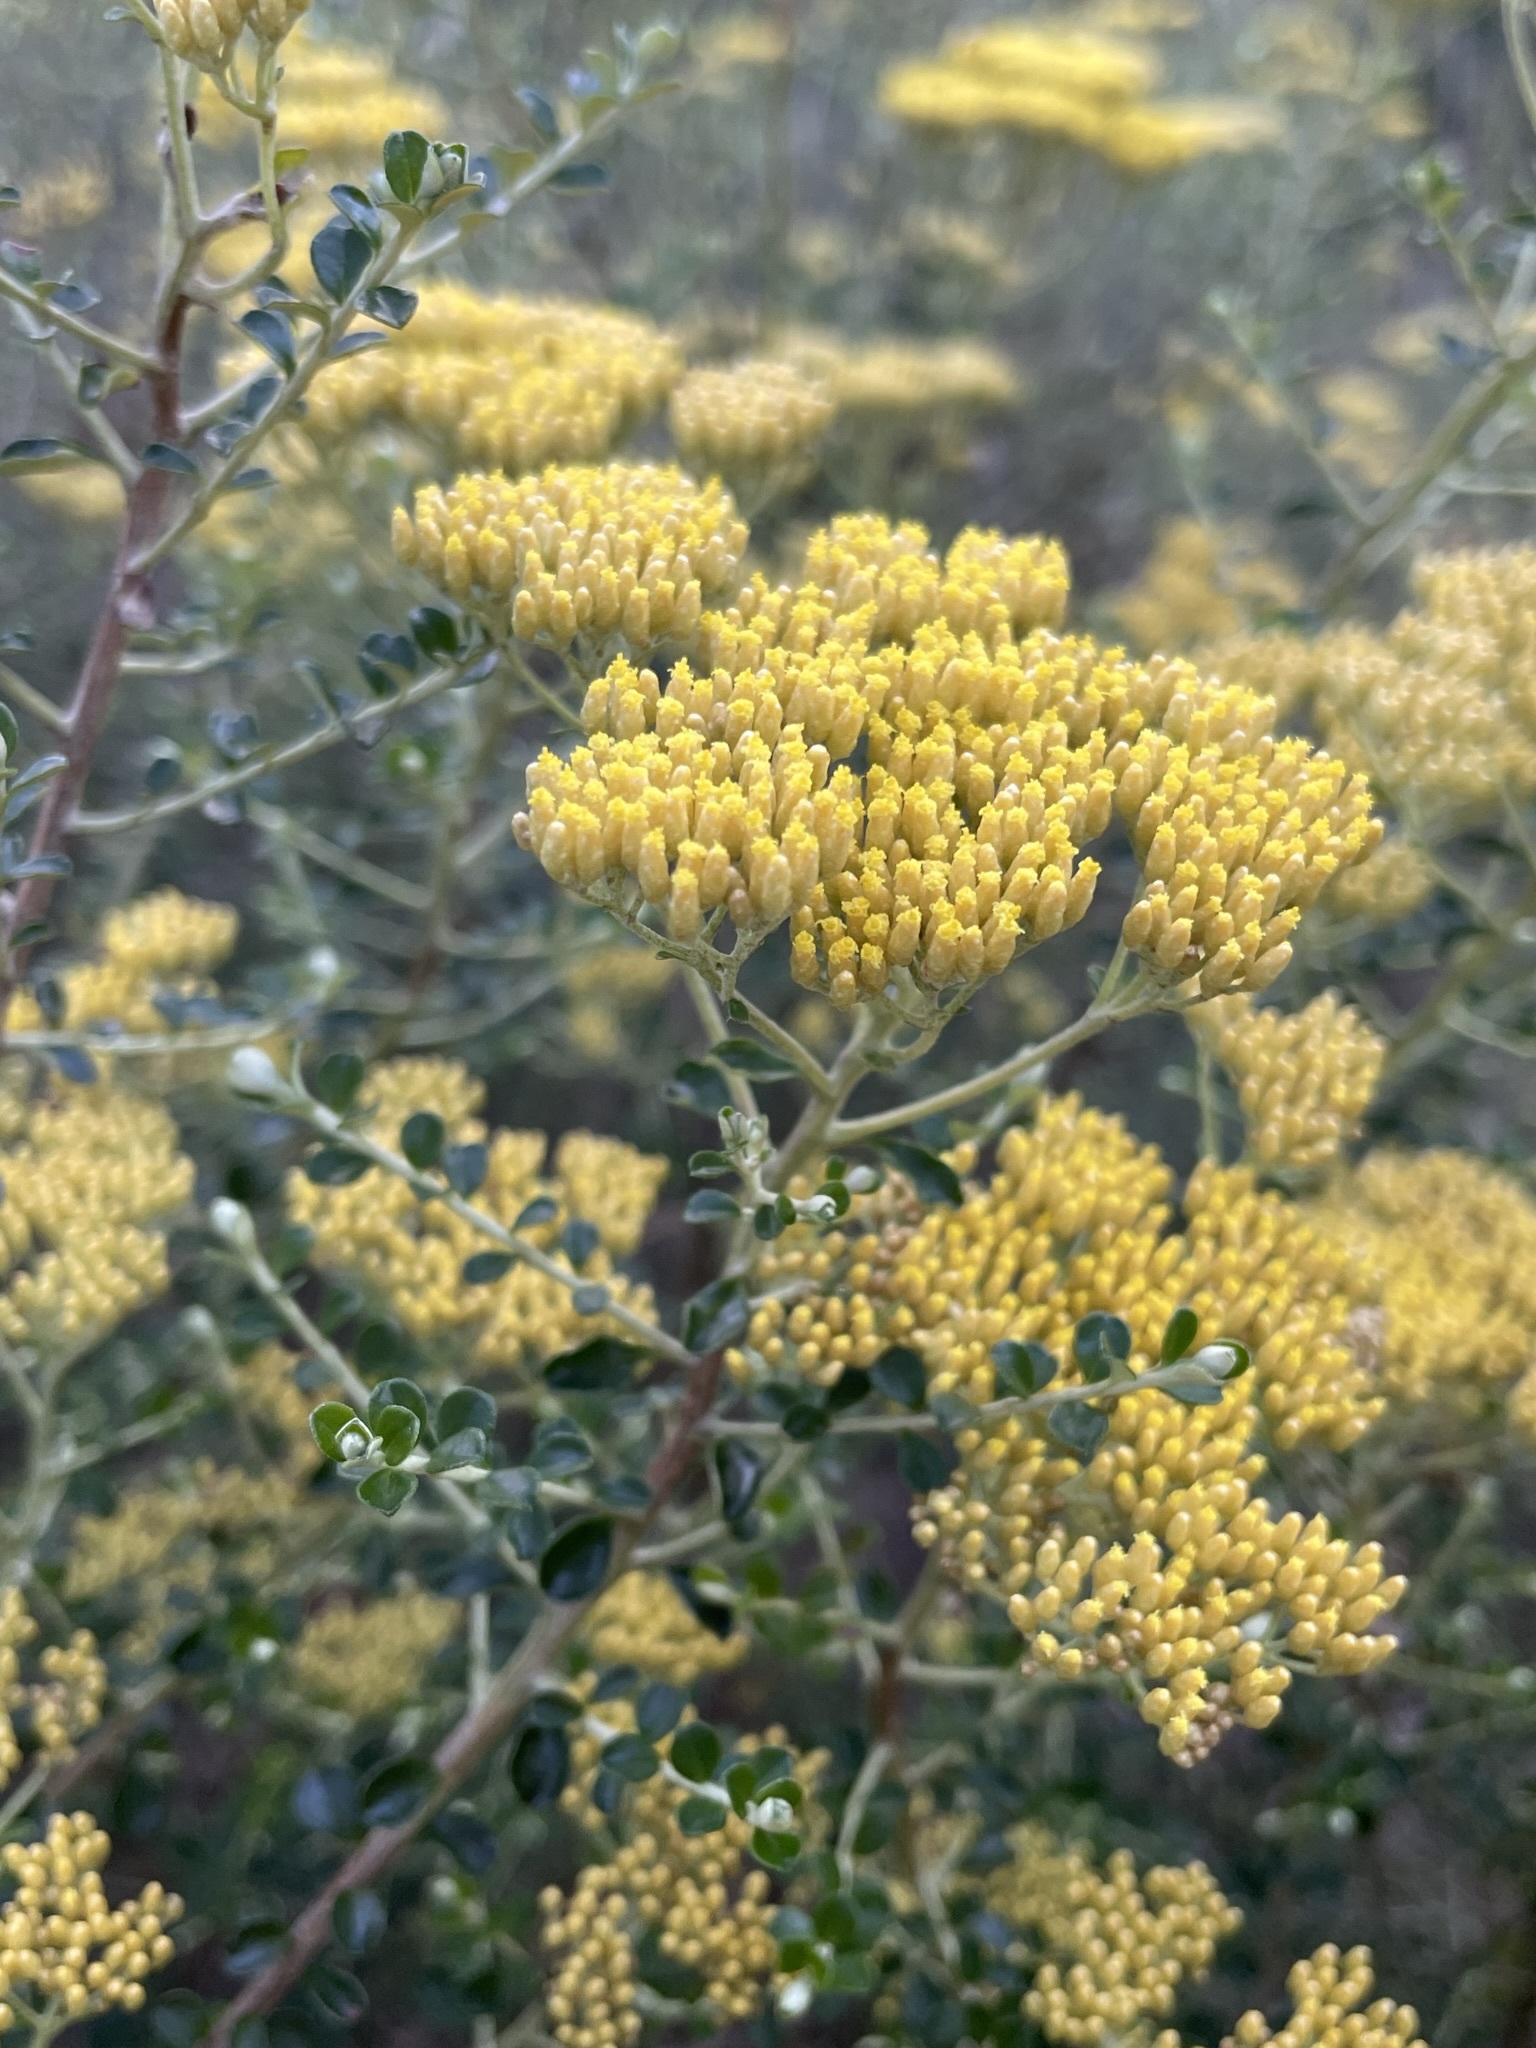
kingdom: Plantae
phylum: Tracheophyta
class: Magnoliopsida
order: Asterales
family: Asteraceae
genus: Ozothamnus
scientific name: Ozothamnus obcordatus
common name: Grey everlasting
